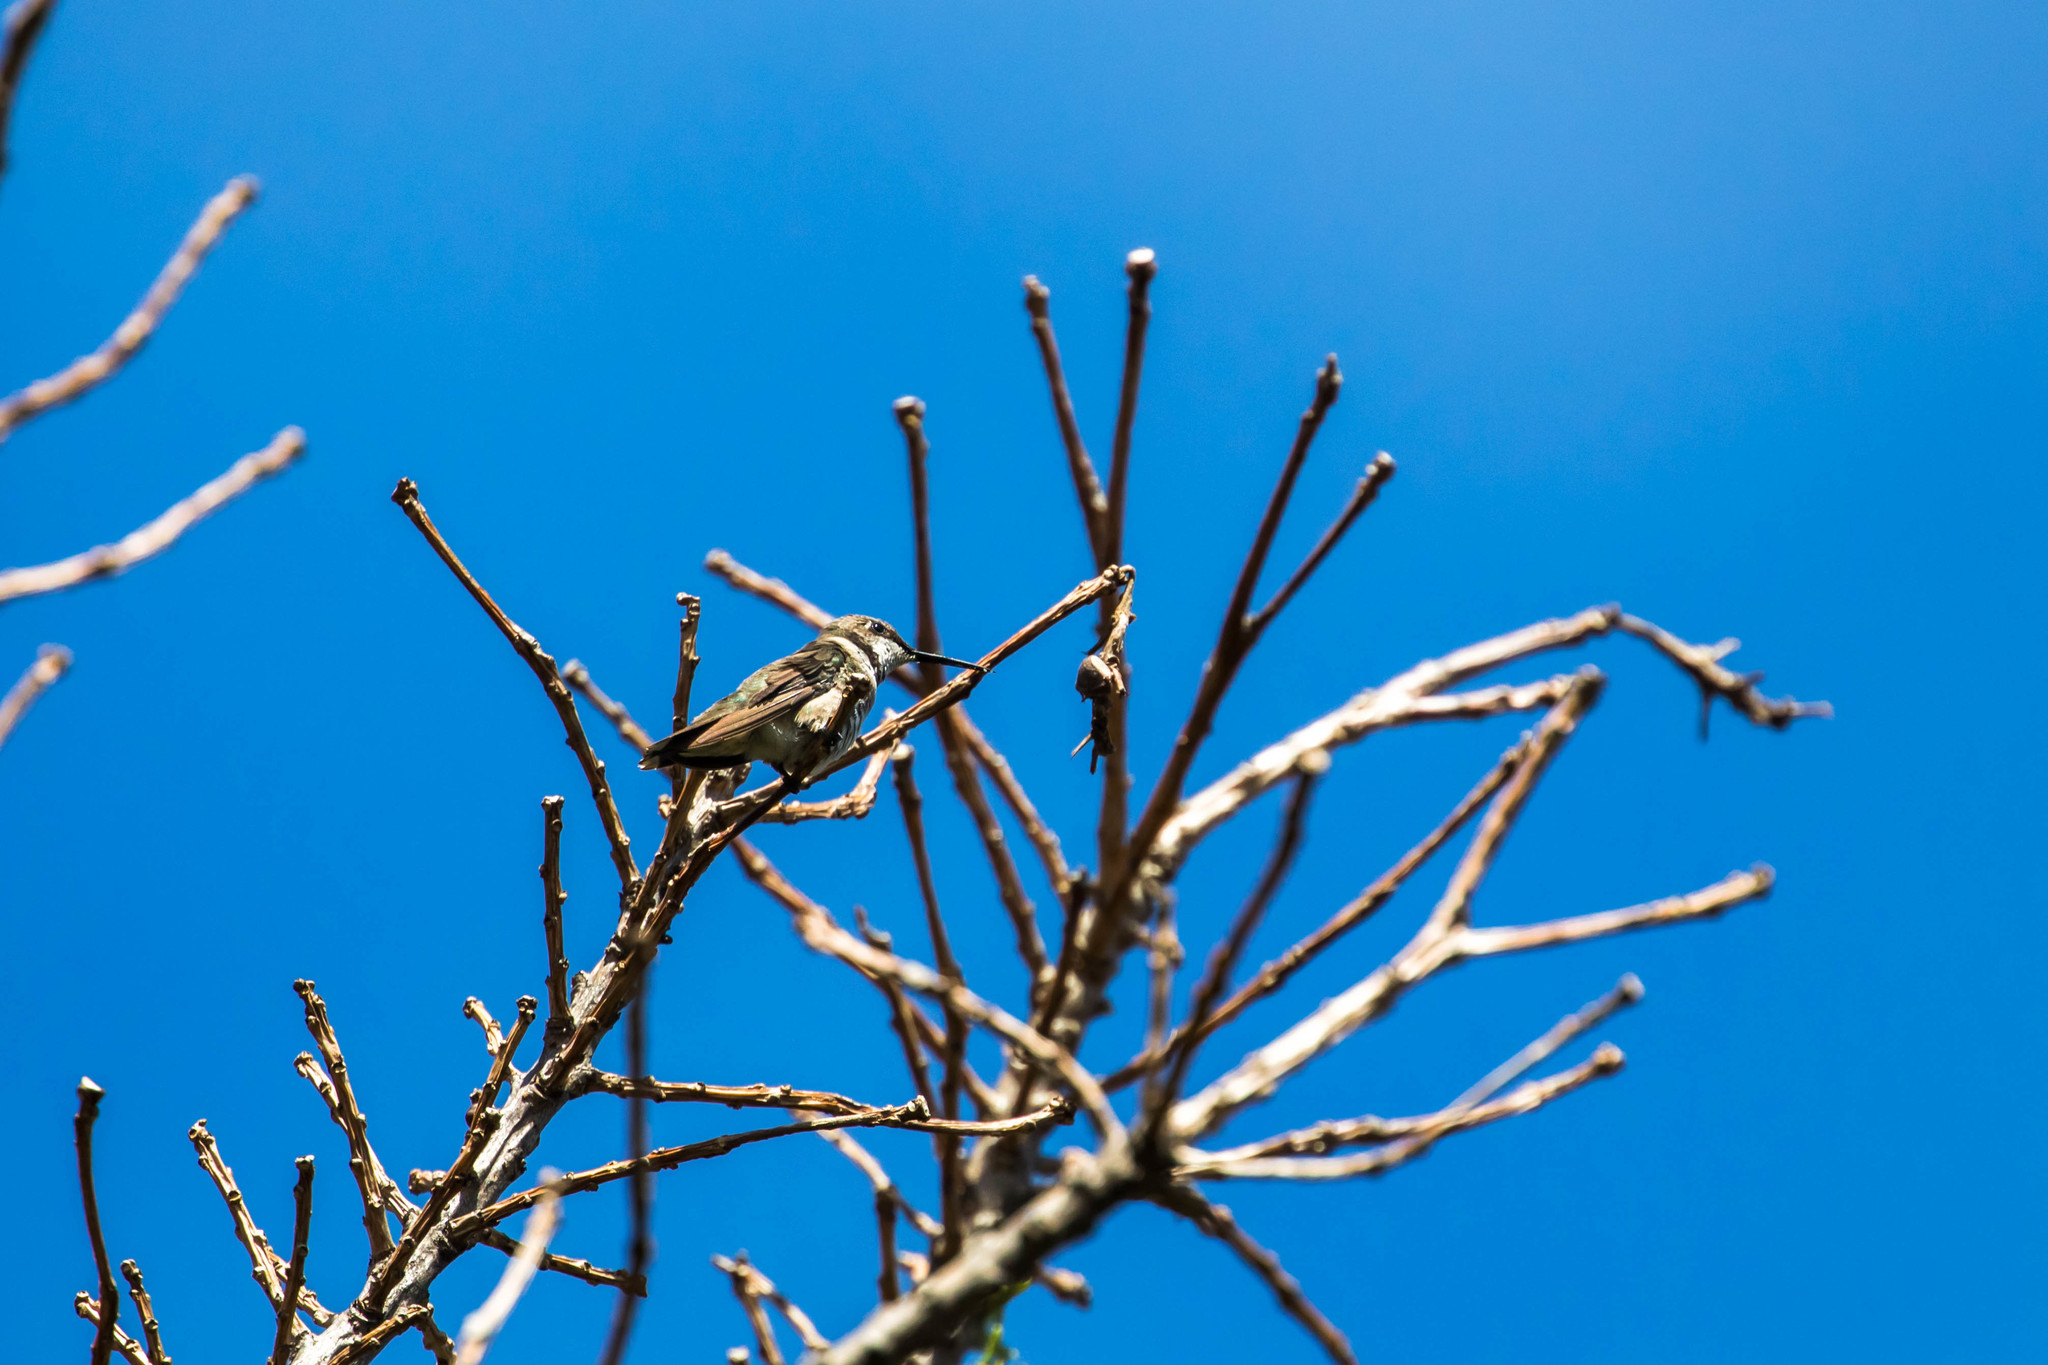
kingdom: Animalia
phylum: Chordata
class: Aves
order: Apodiformes
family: Trochilidae
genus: Archilochus
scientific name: Archilochus colubris
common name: Ruby-throated hummingbird
